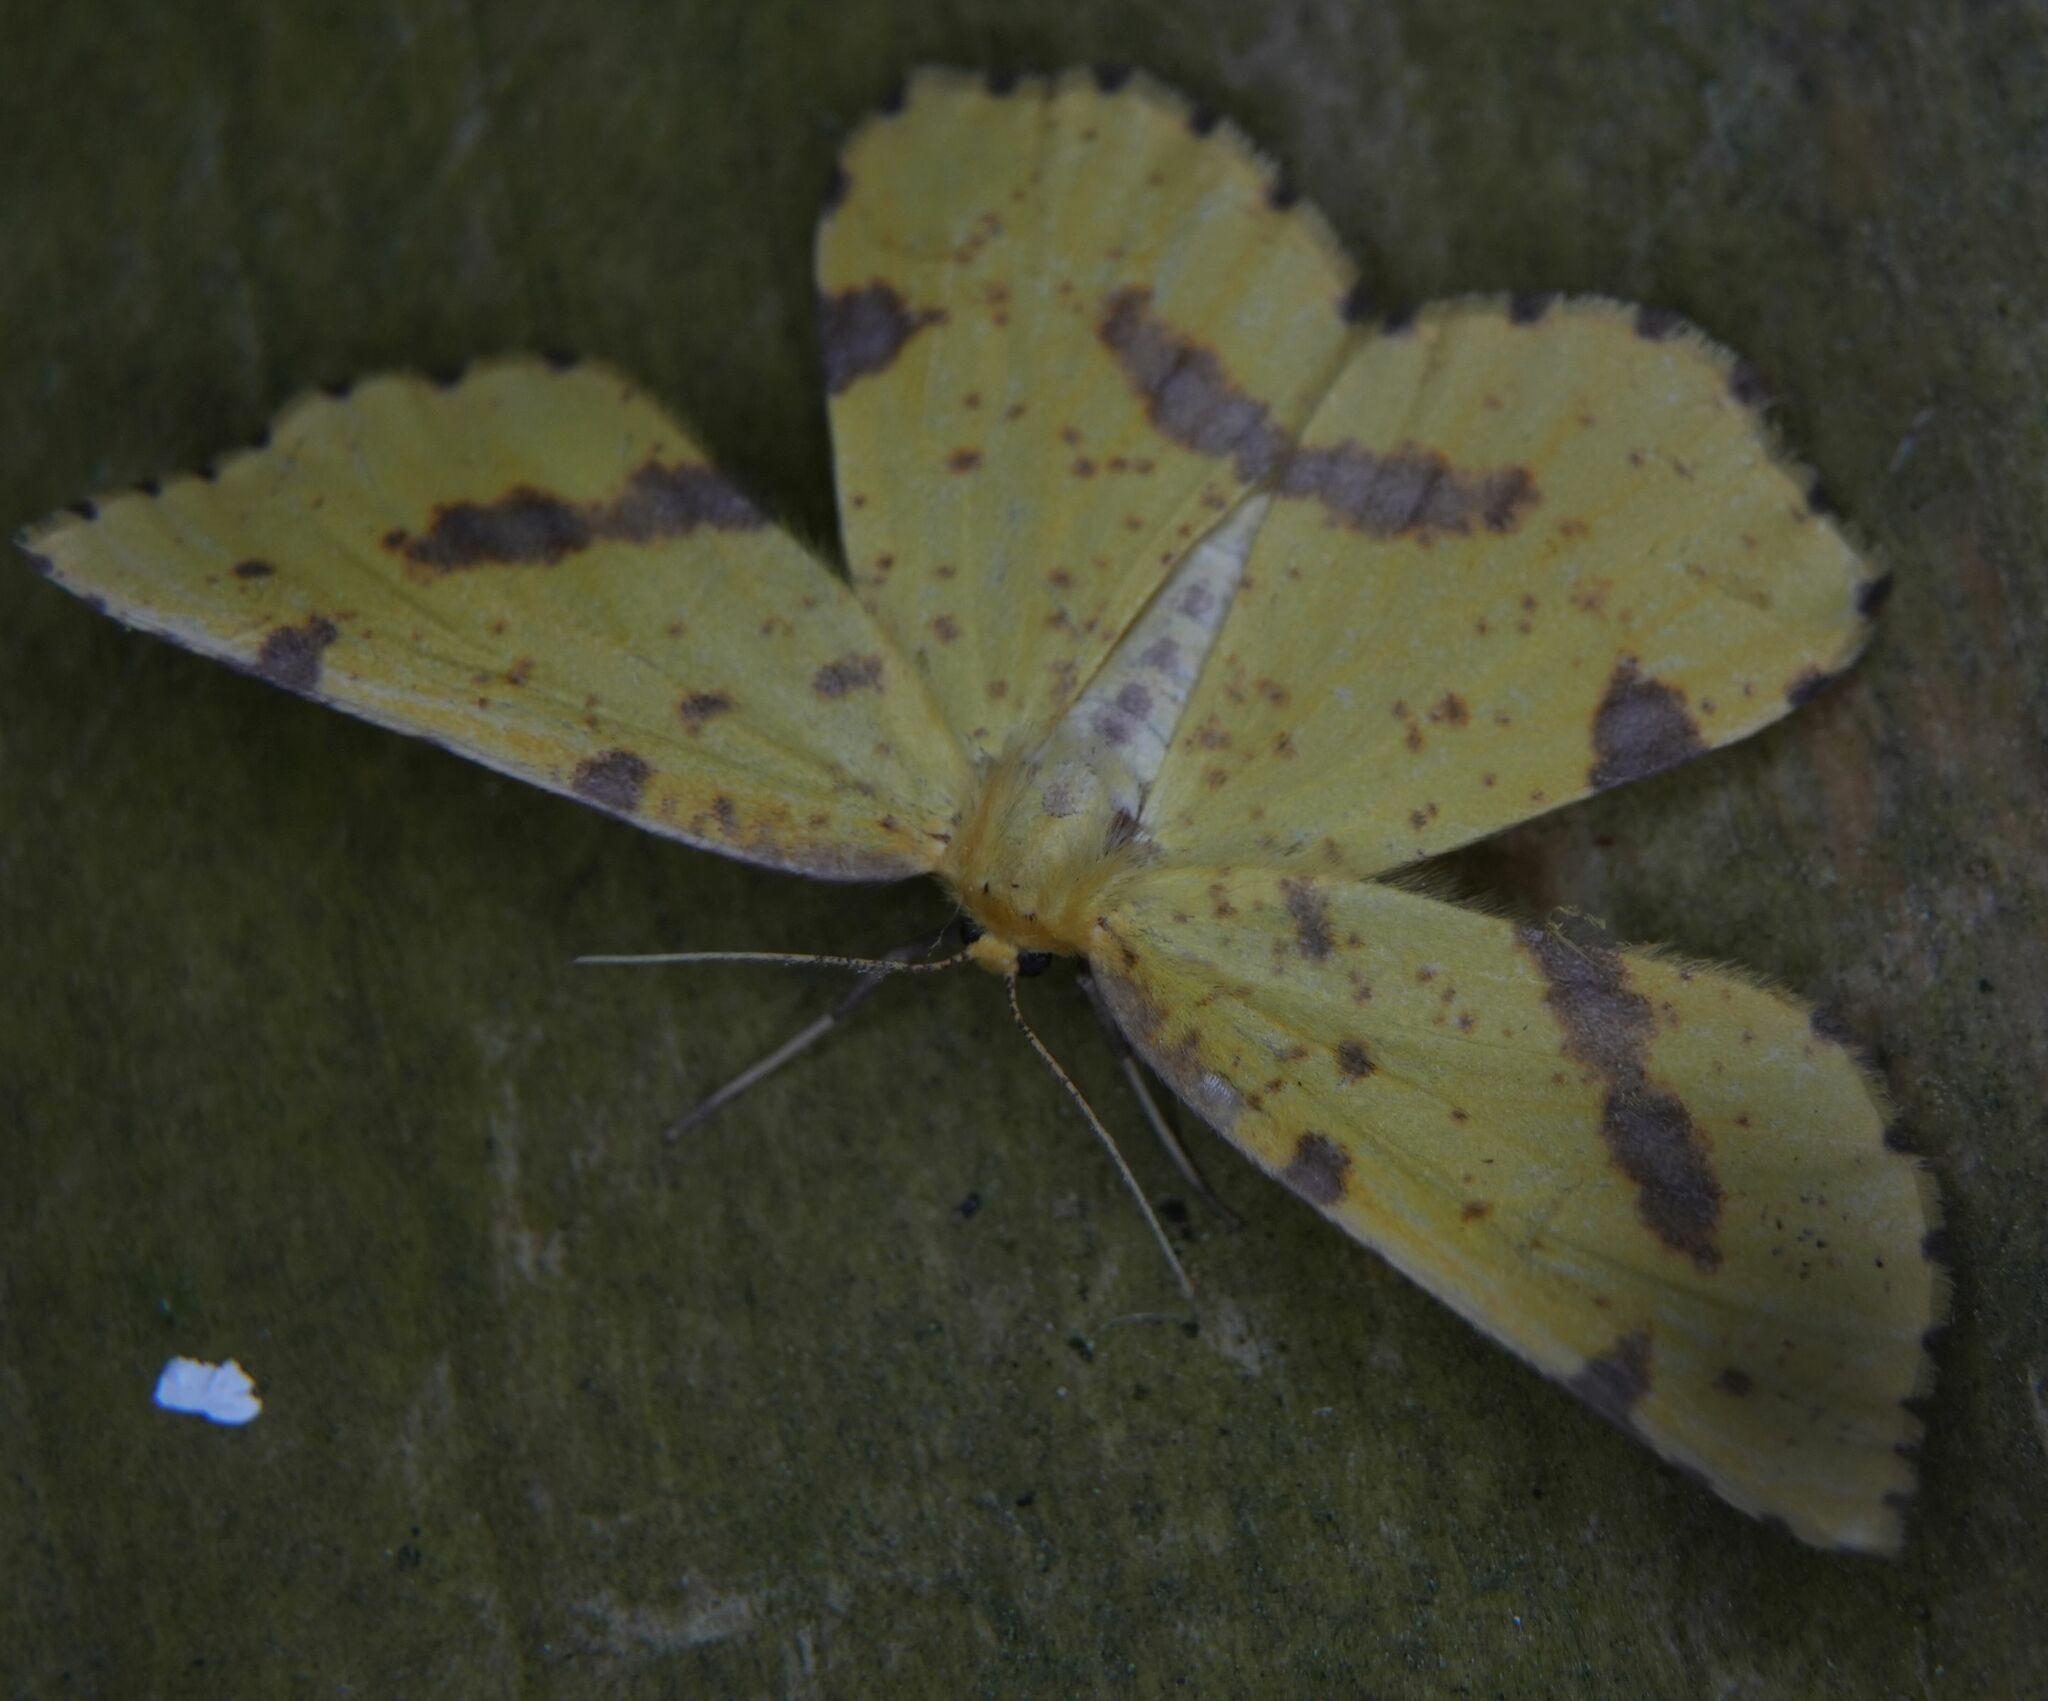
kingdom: Animalia
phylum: Arthropoda
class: Insecta
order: Lepidoptera
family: Geometridae
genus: Xanthotype
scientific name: Xanthotype
